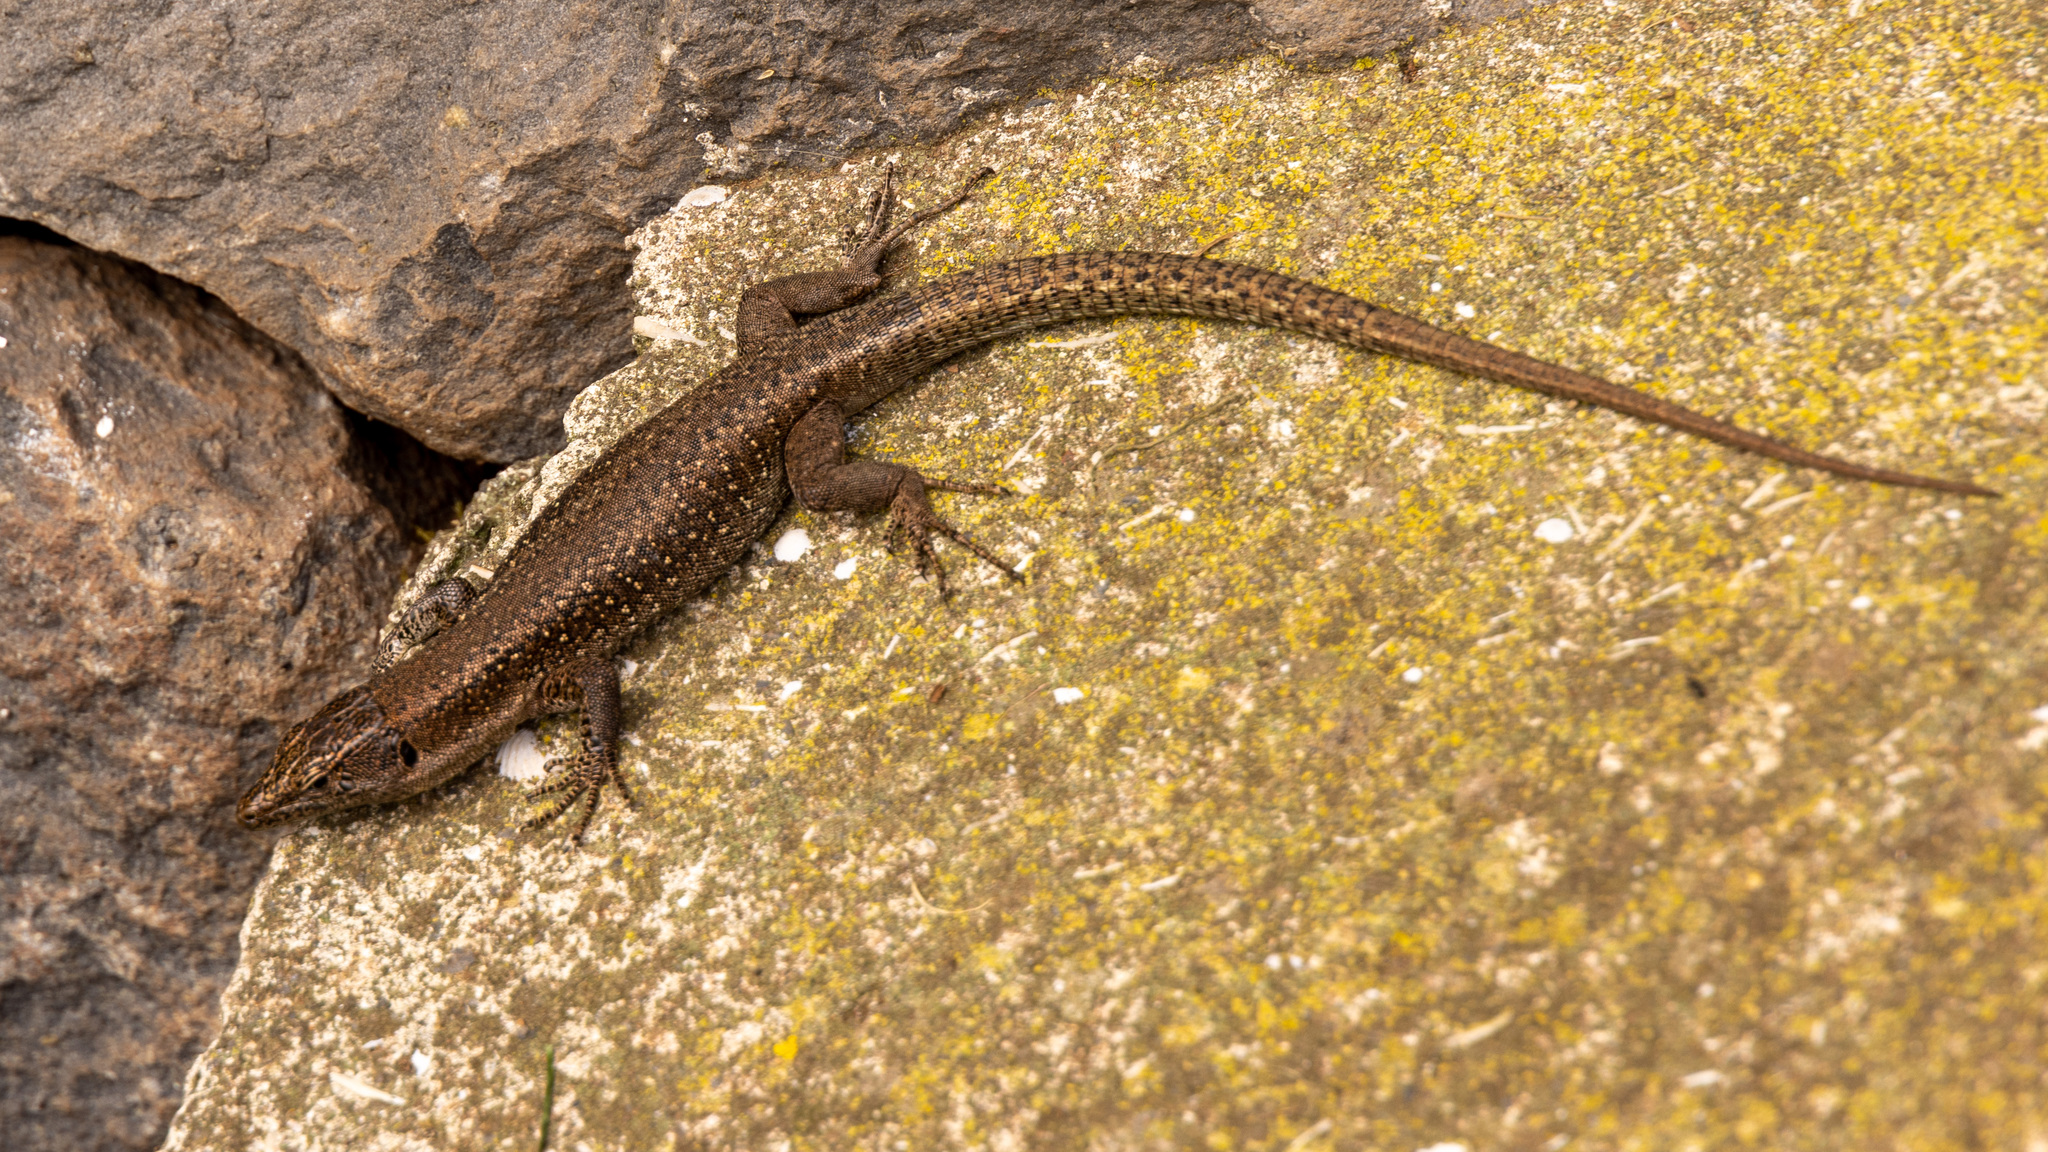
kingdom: Animalia
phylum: Chordata
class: Squamata
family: Lacertidae
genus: Teira
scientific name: Teira dugesii
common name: Madeira lizard
